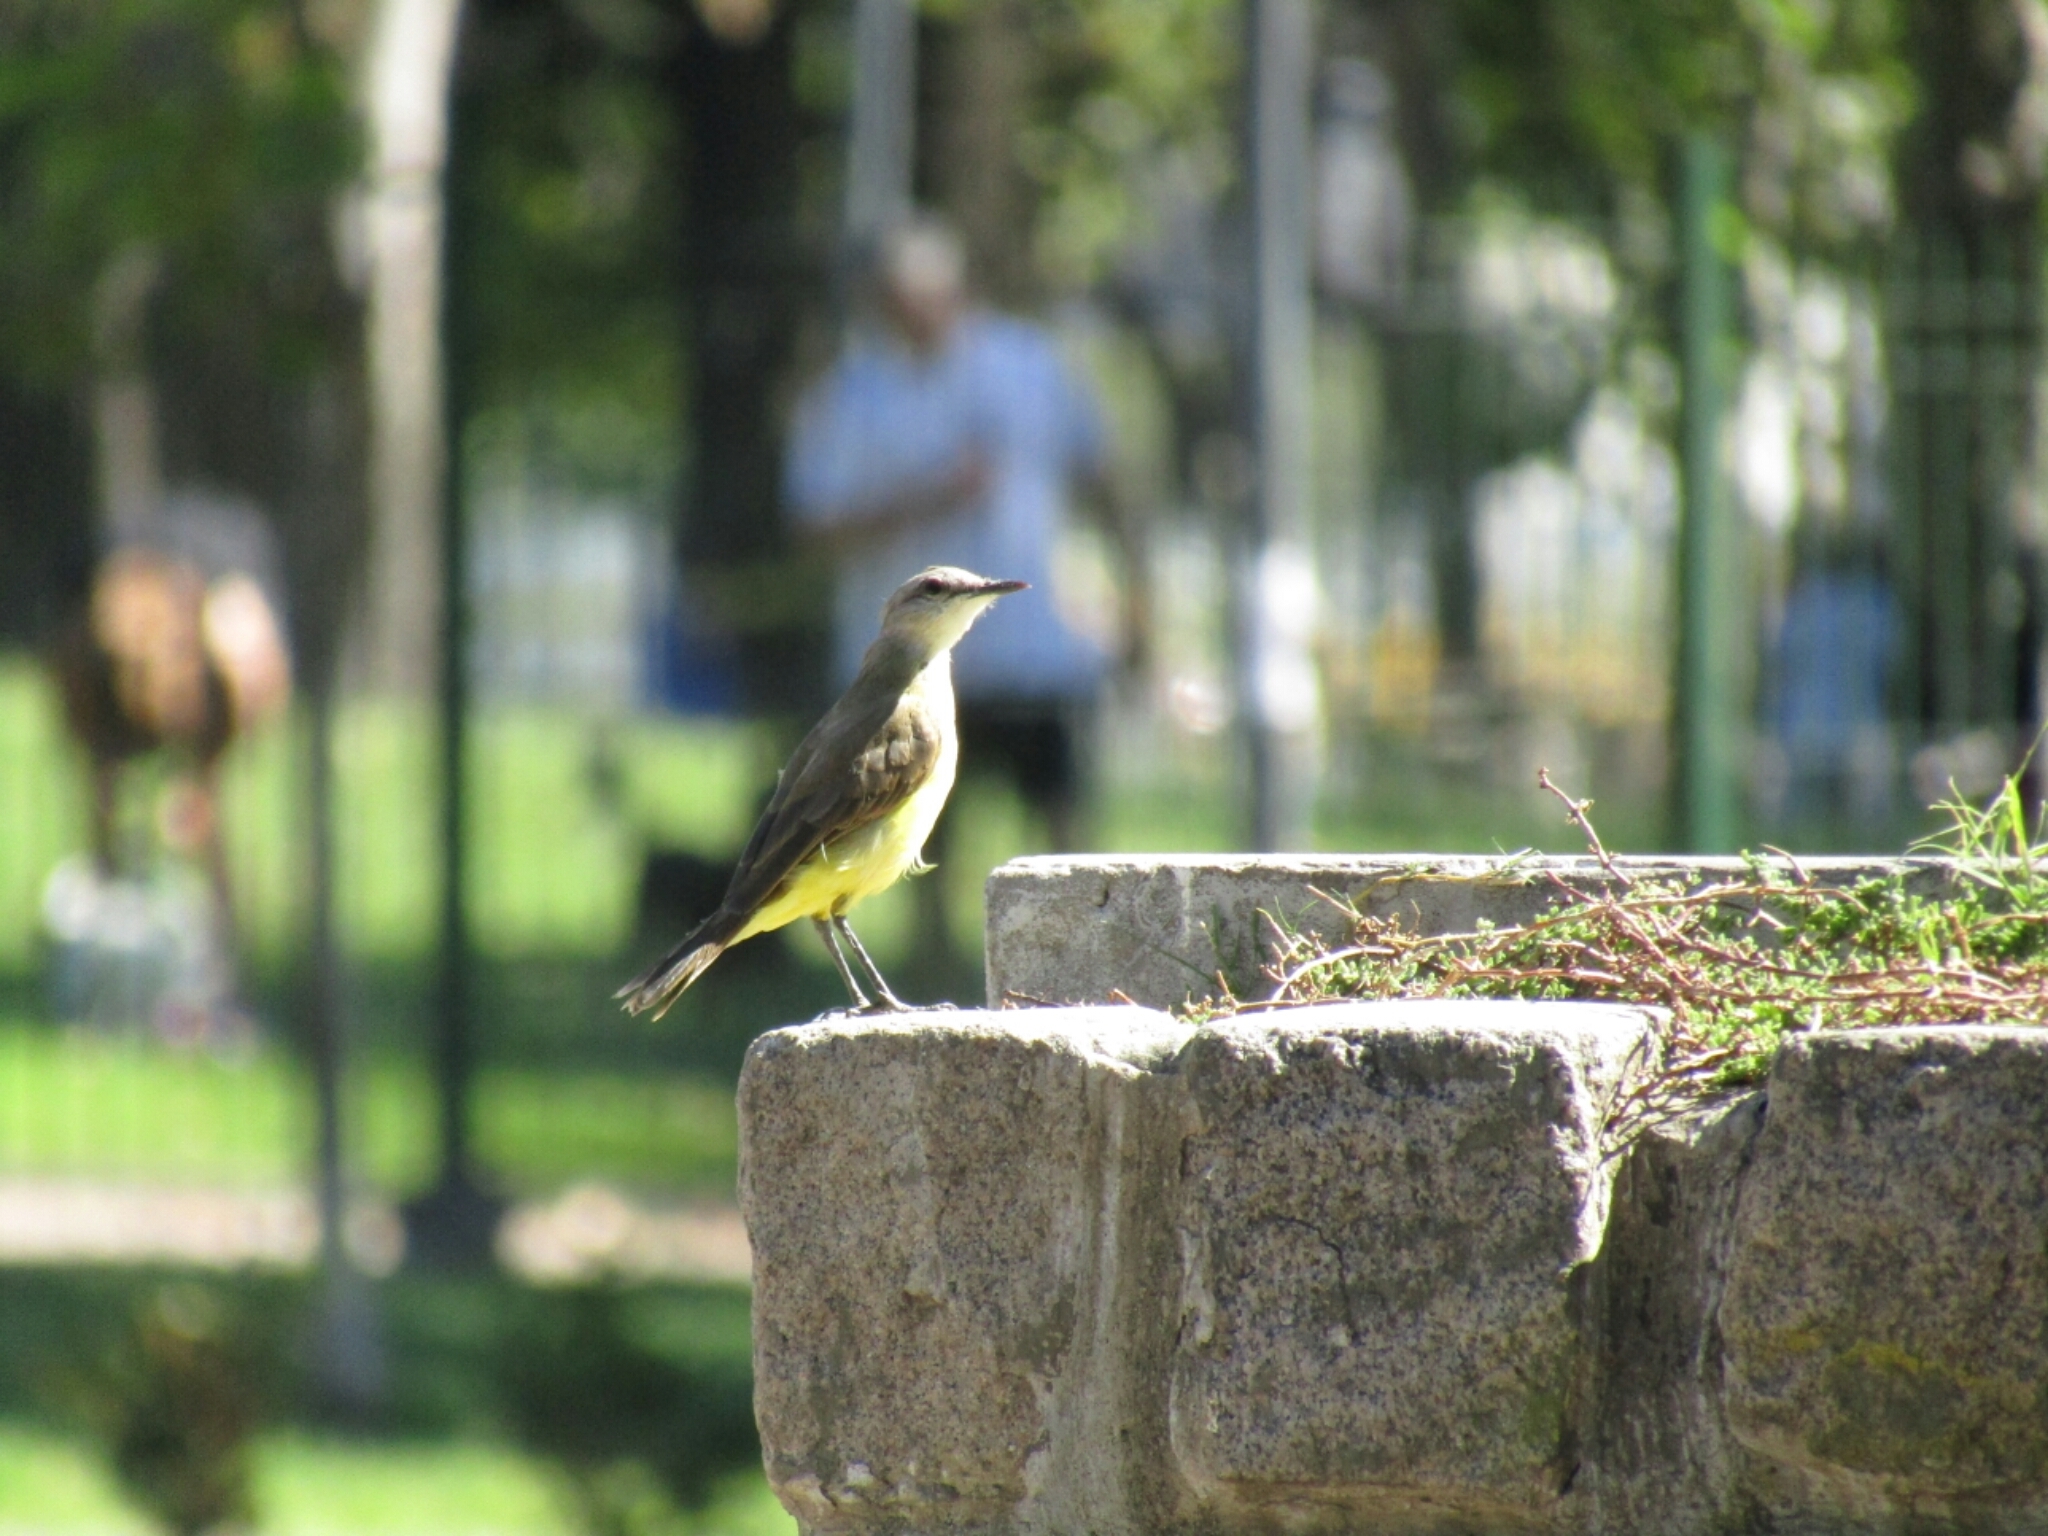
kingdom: Animalia
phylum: Chordata
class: Aves
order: Passeriformes
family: Tyrannidae
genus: Machetornis
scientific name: Machetornis rixosa
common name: Cattle tyrant
